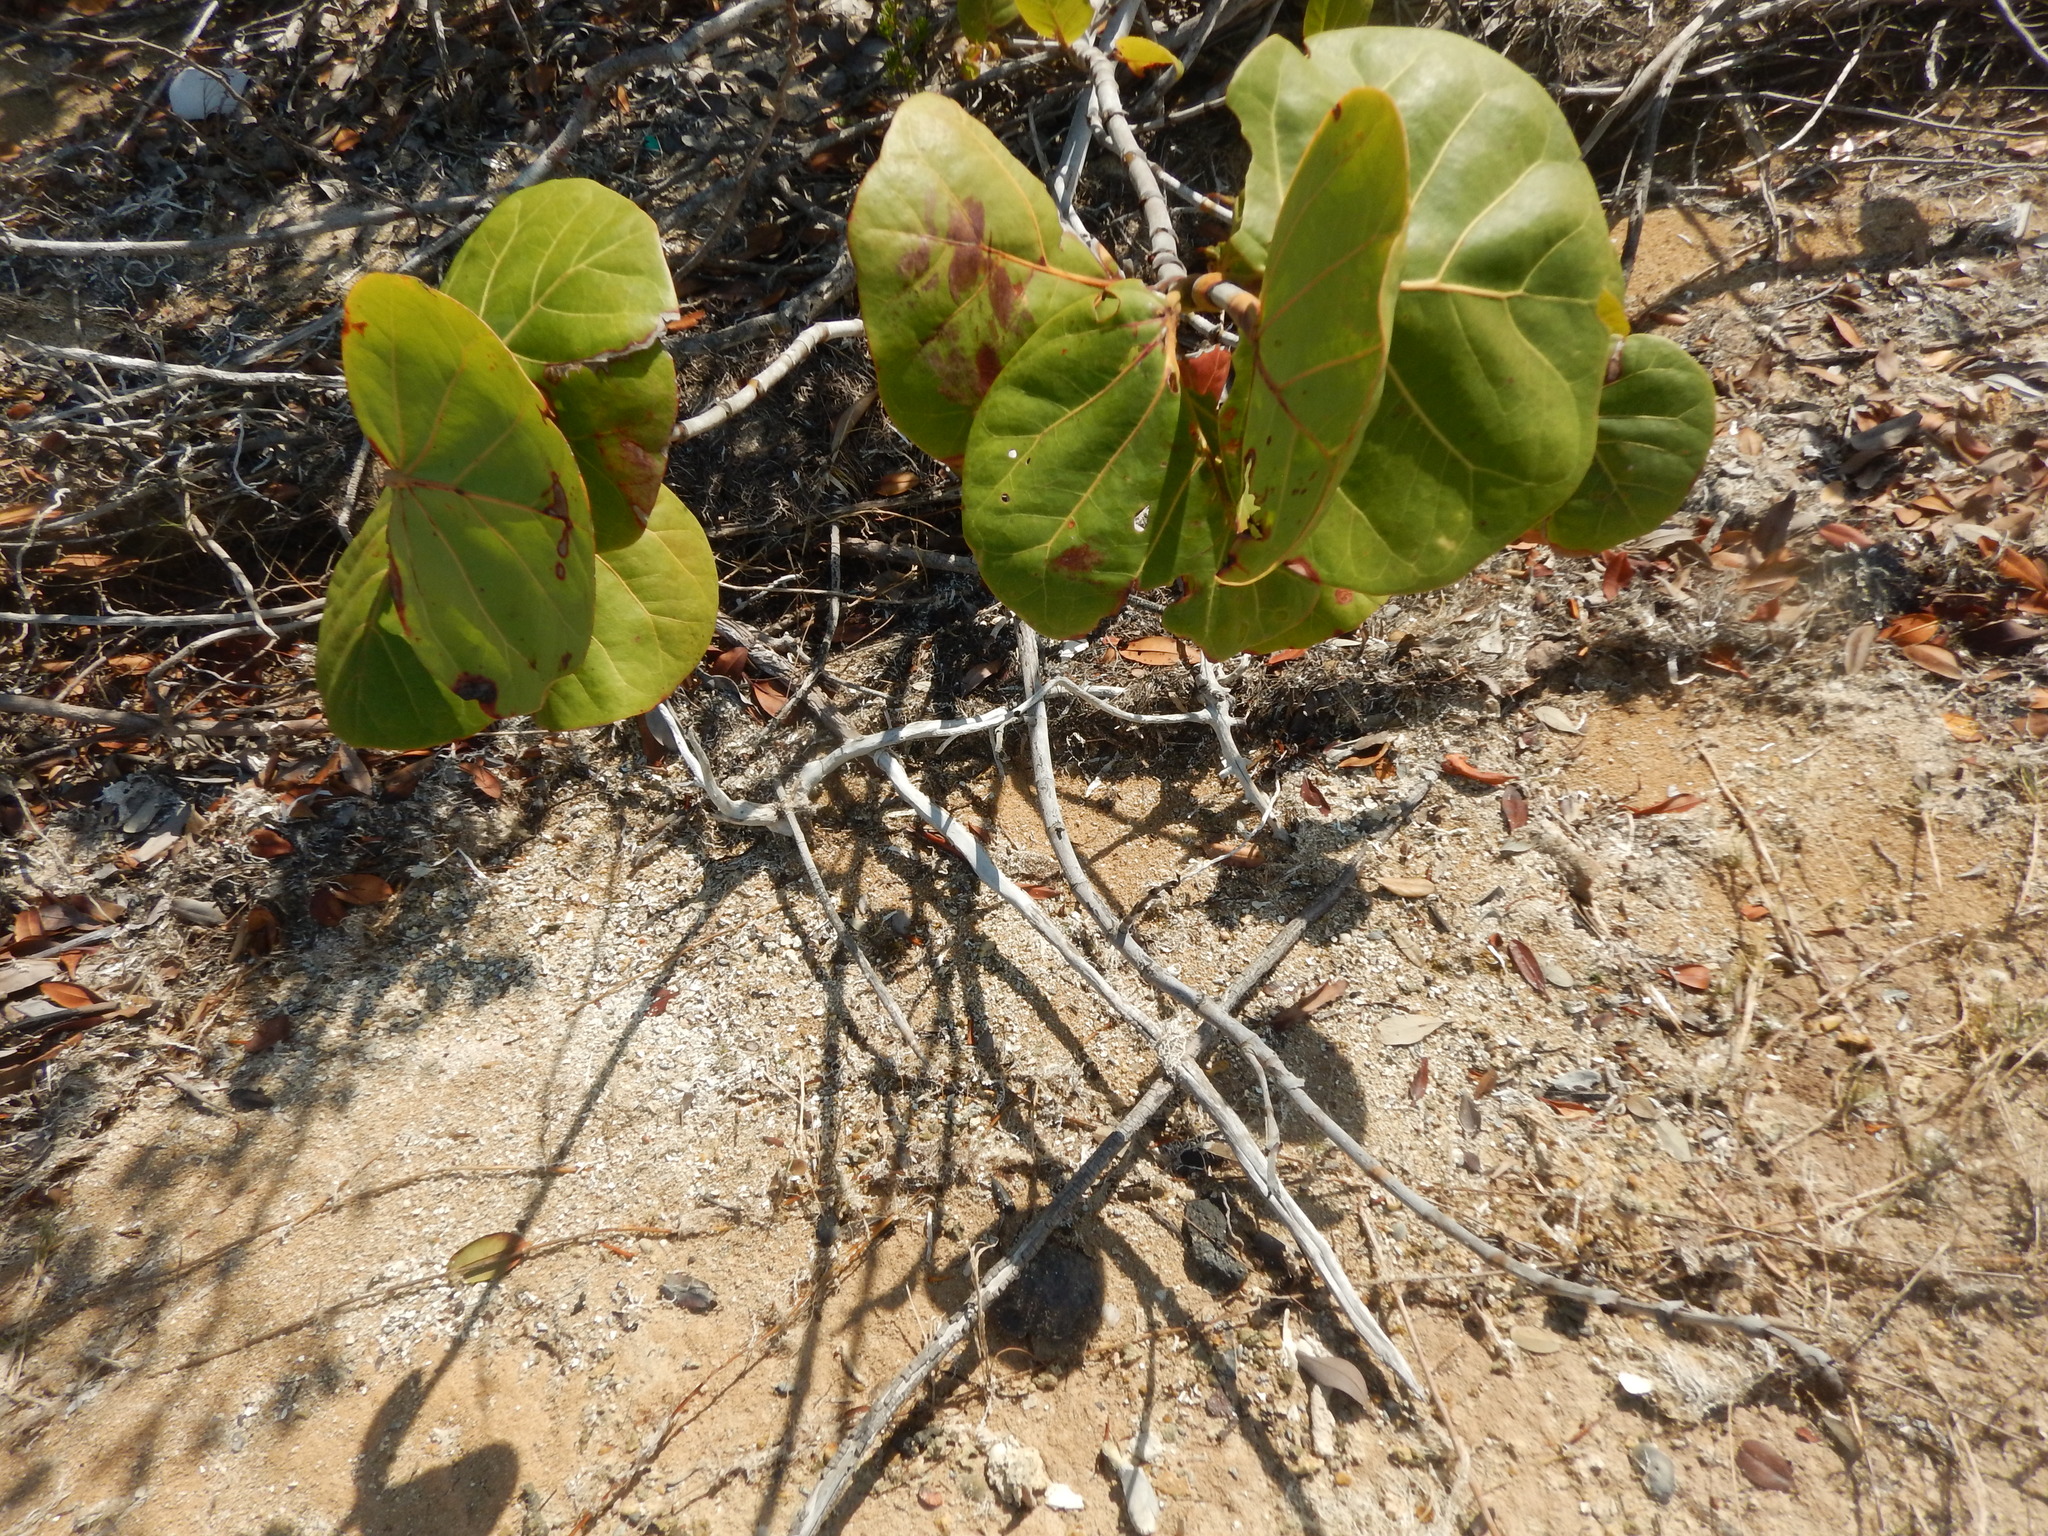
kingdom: Plantae
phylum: Tracheophyta
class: Magnoliopsida
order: Caryophyllales
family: Polygonaceae
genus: Coccoloba
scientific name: Coccoloba uvifera
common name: Seagrape
